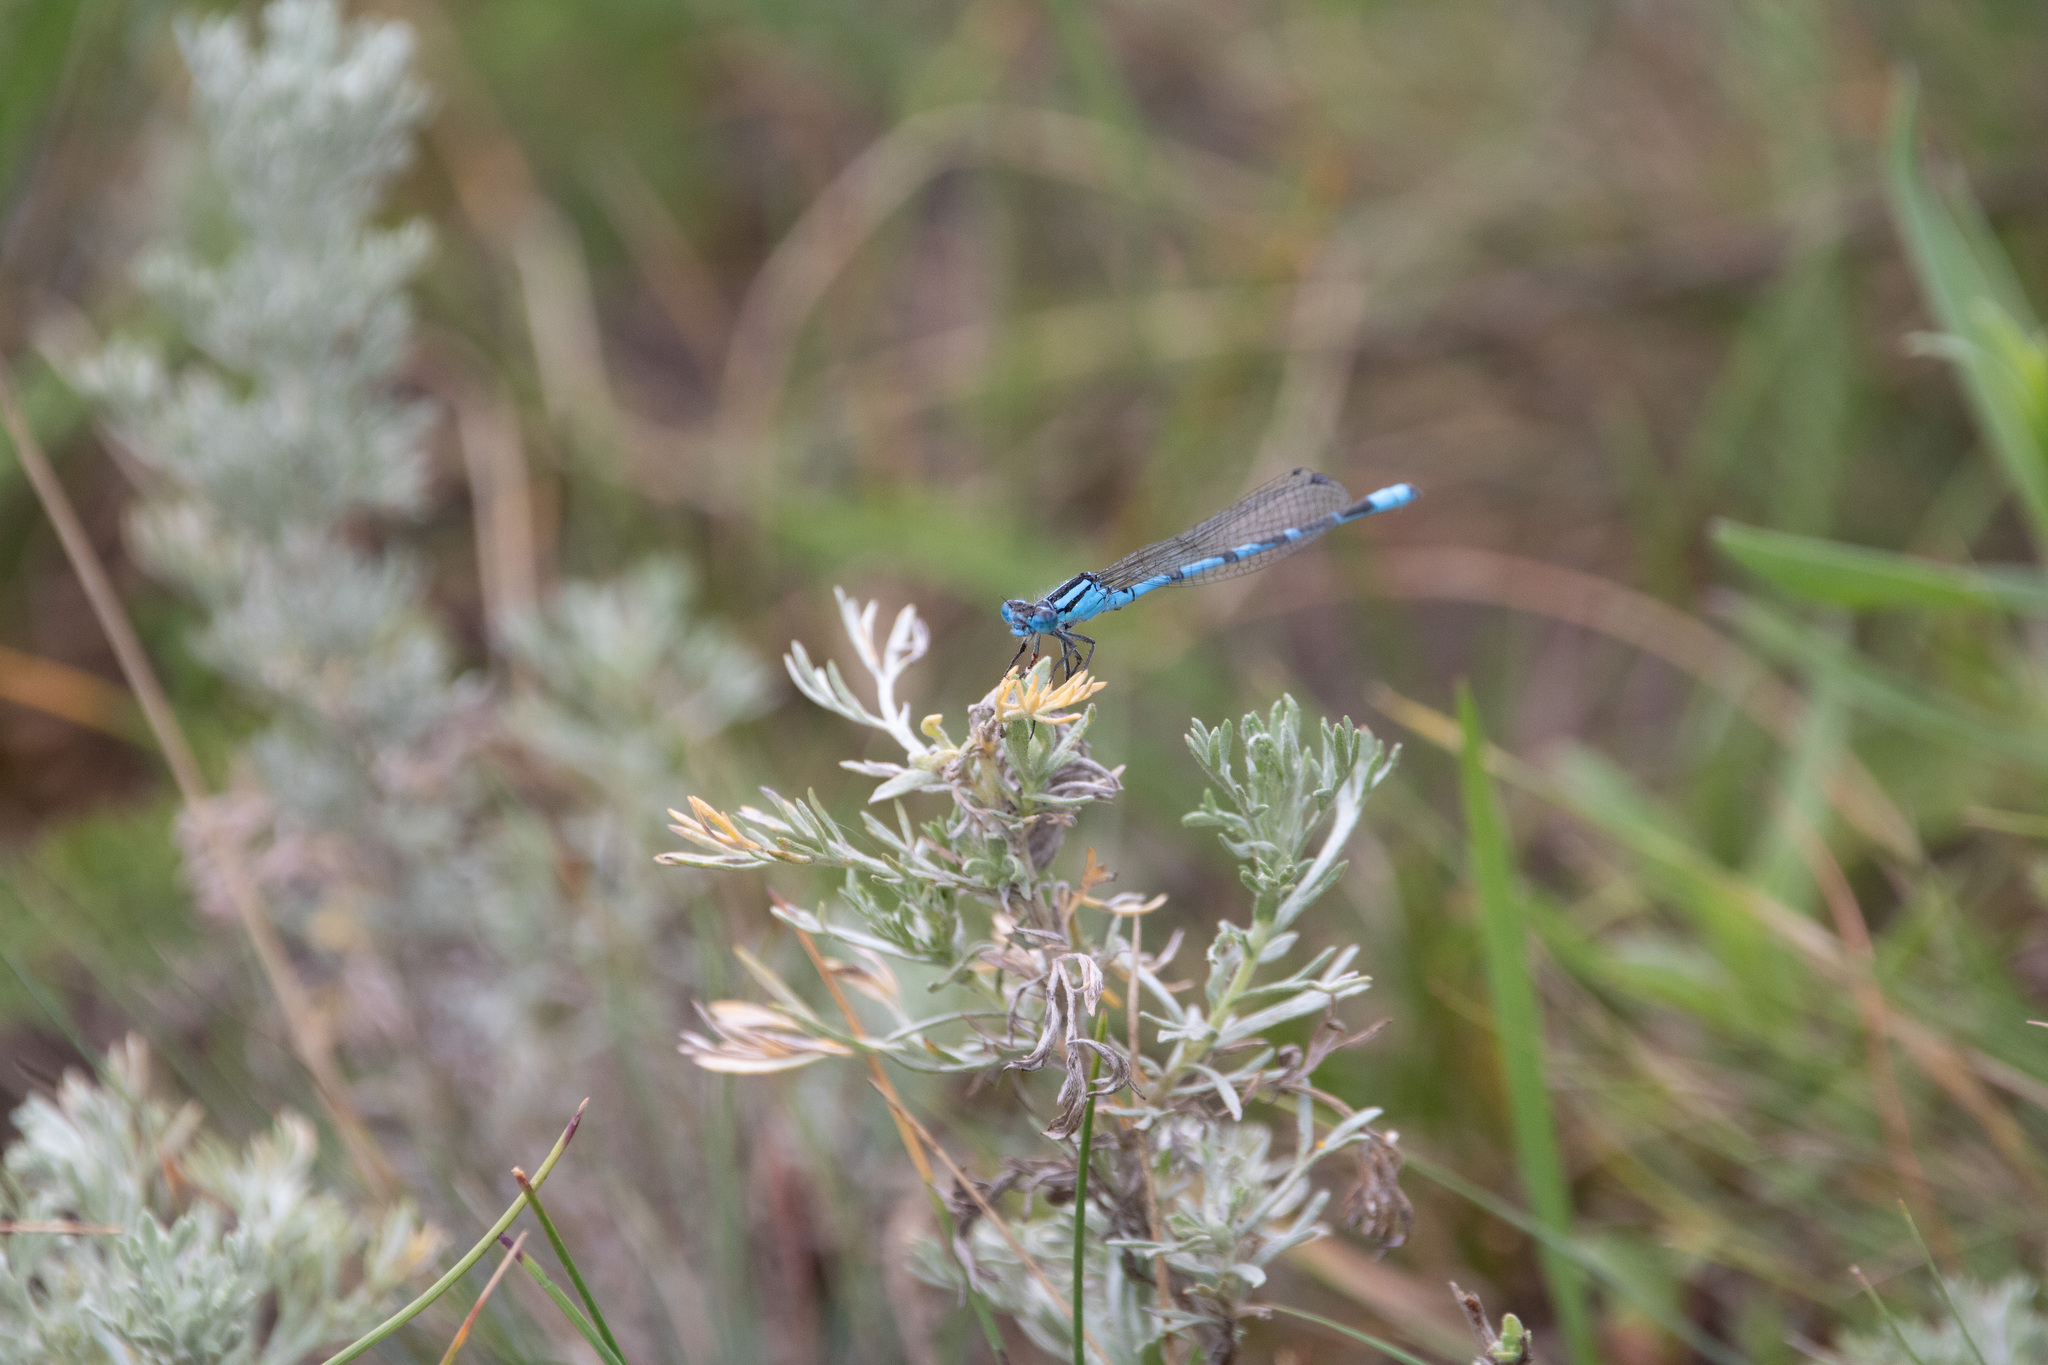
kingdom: Animalia
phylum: Arthropoda
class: Insecta
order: Odonata
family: Coenagrionidae
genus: Enallagma
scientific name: Enallagma cyathigerum
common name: Common blue damselfly
